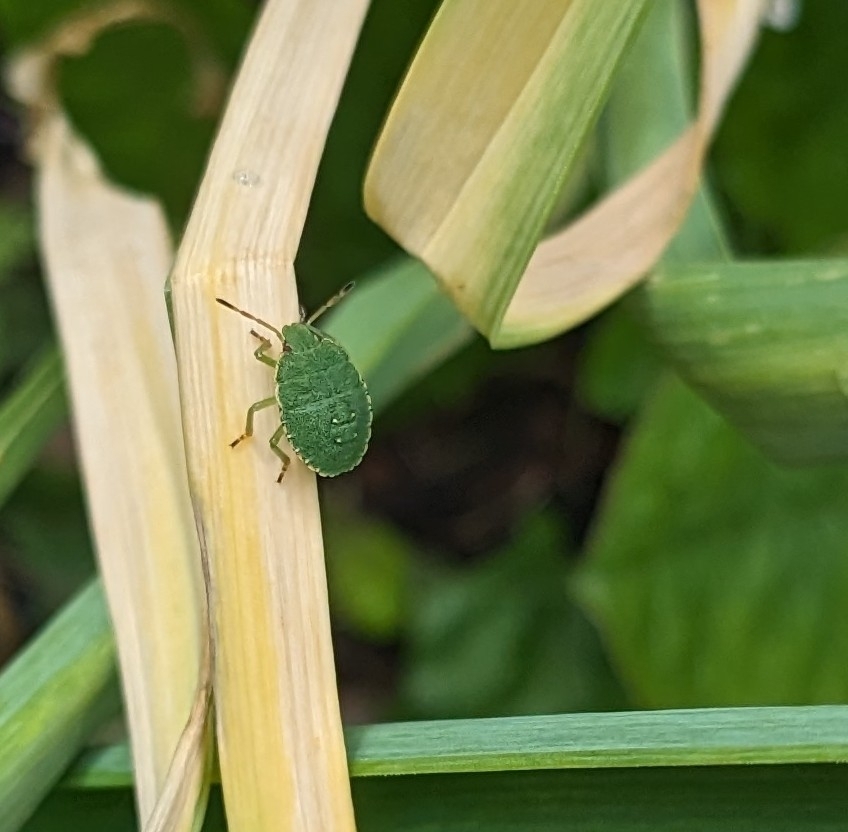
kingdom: Animalia
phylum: Arthropoda
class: Insecta
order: Hemiptera
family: Pentatomidae
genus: Palomena
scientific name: Palomena prasina
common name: Green shieldbug
